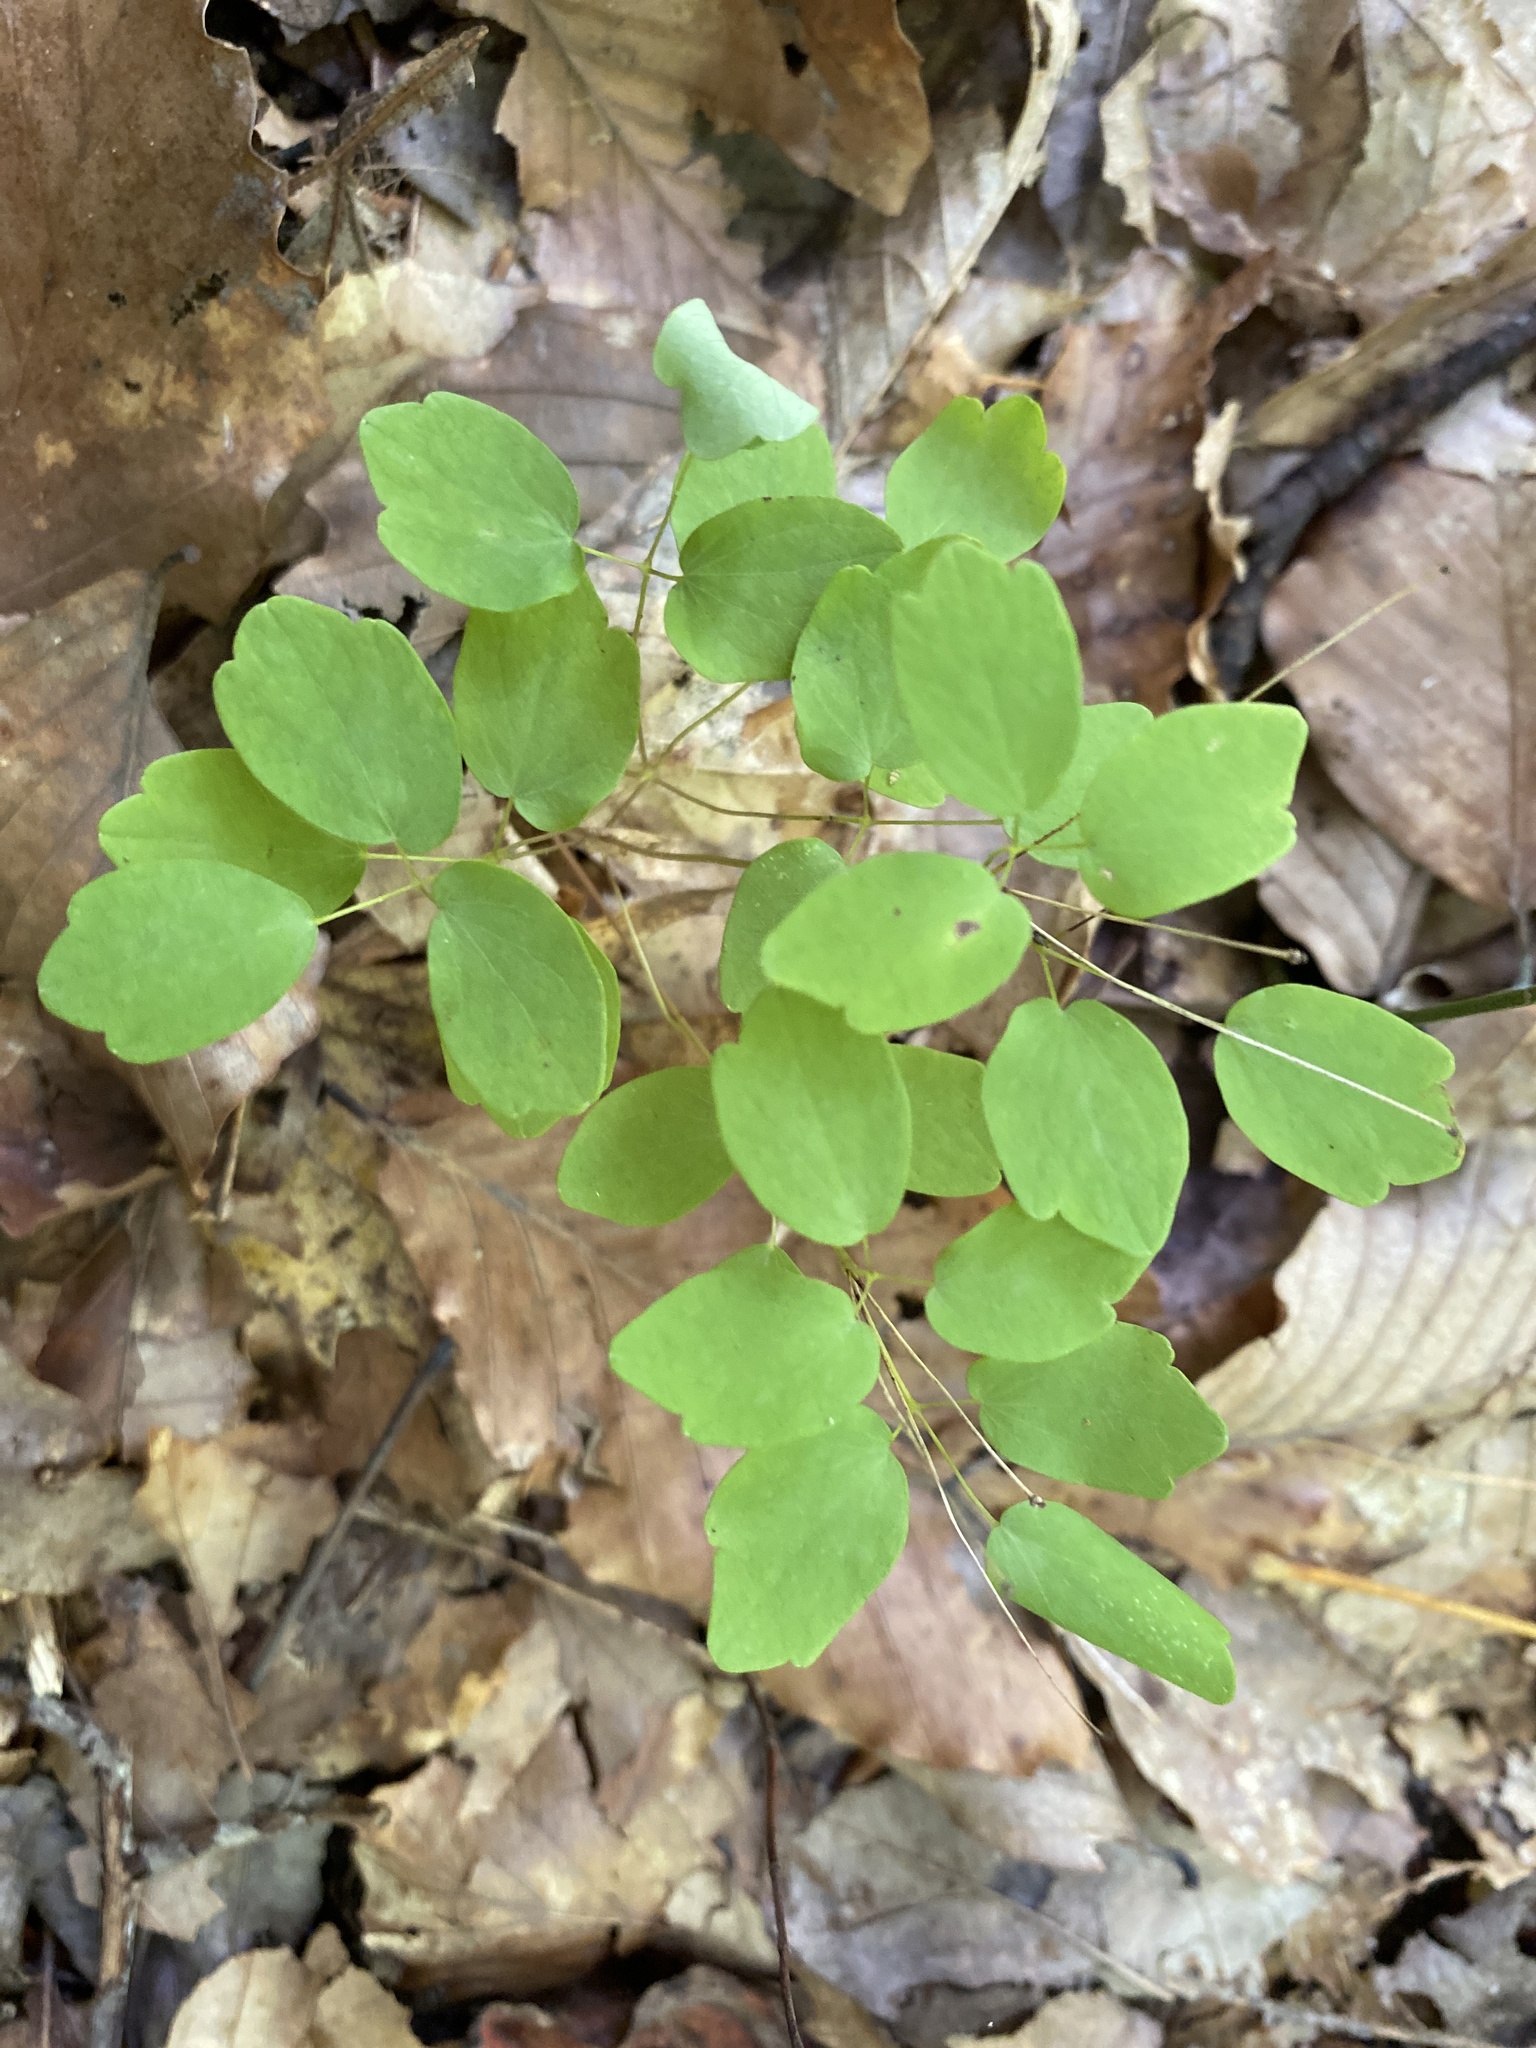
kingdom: Plantae
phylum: Tracheophyta
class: Magnoliopsida
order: Ranunculales
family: Ranunculaceae
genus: Thalictrum
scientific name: Thalictrum thalictroides
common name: Rue-anemone
